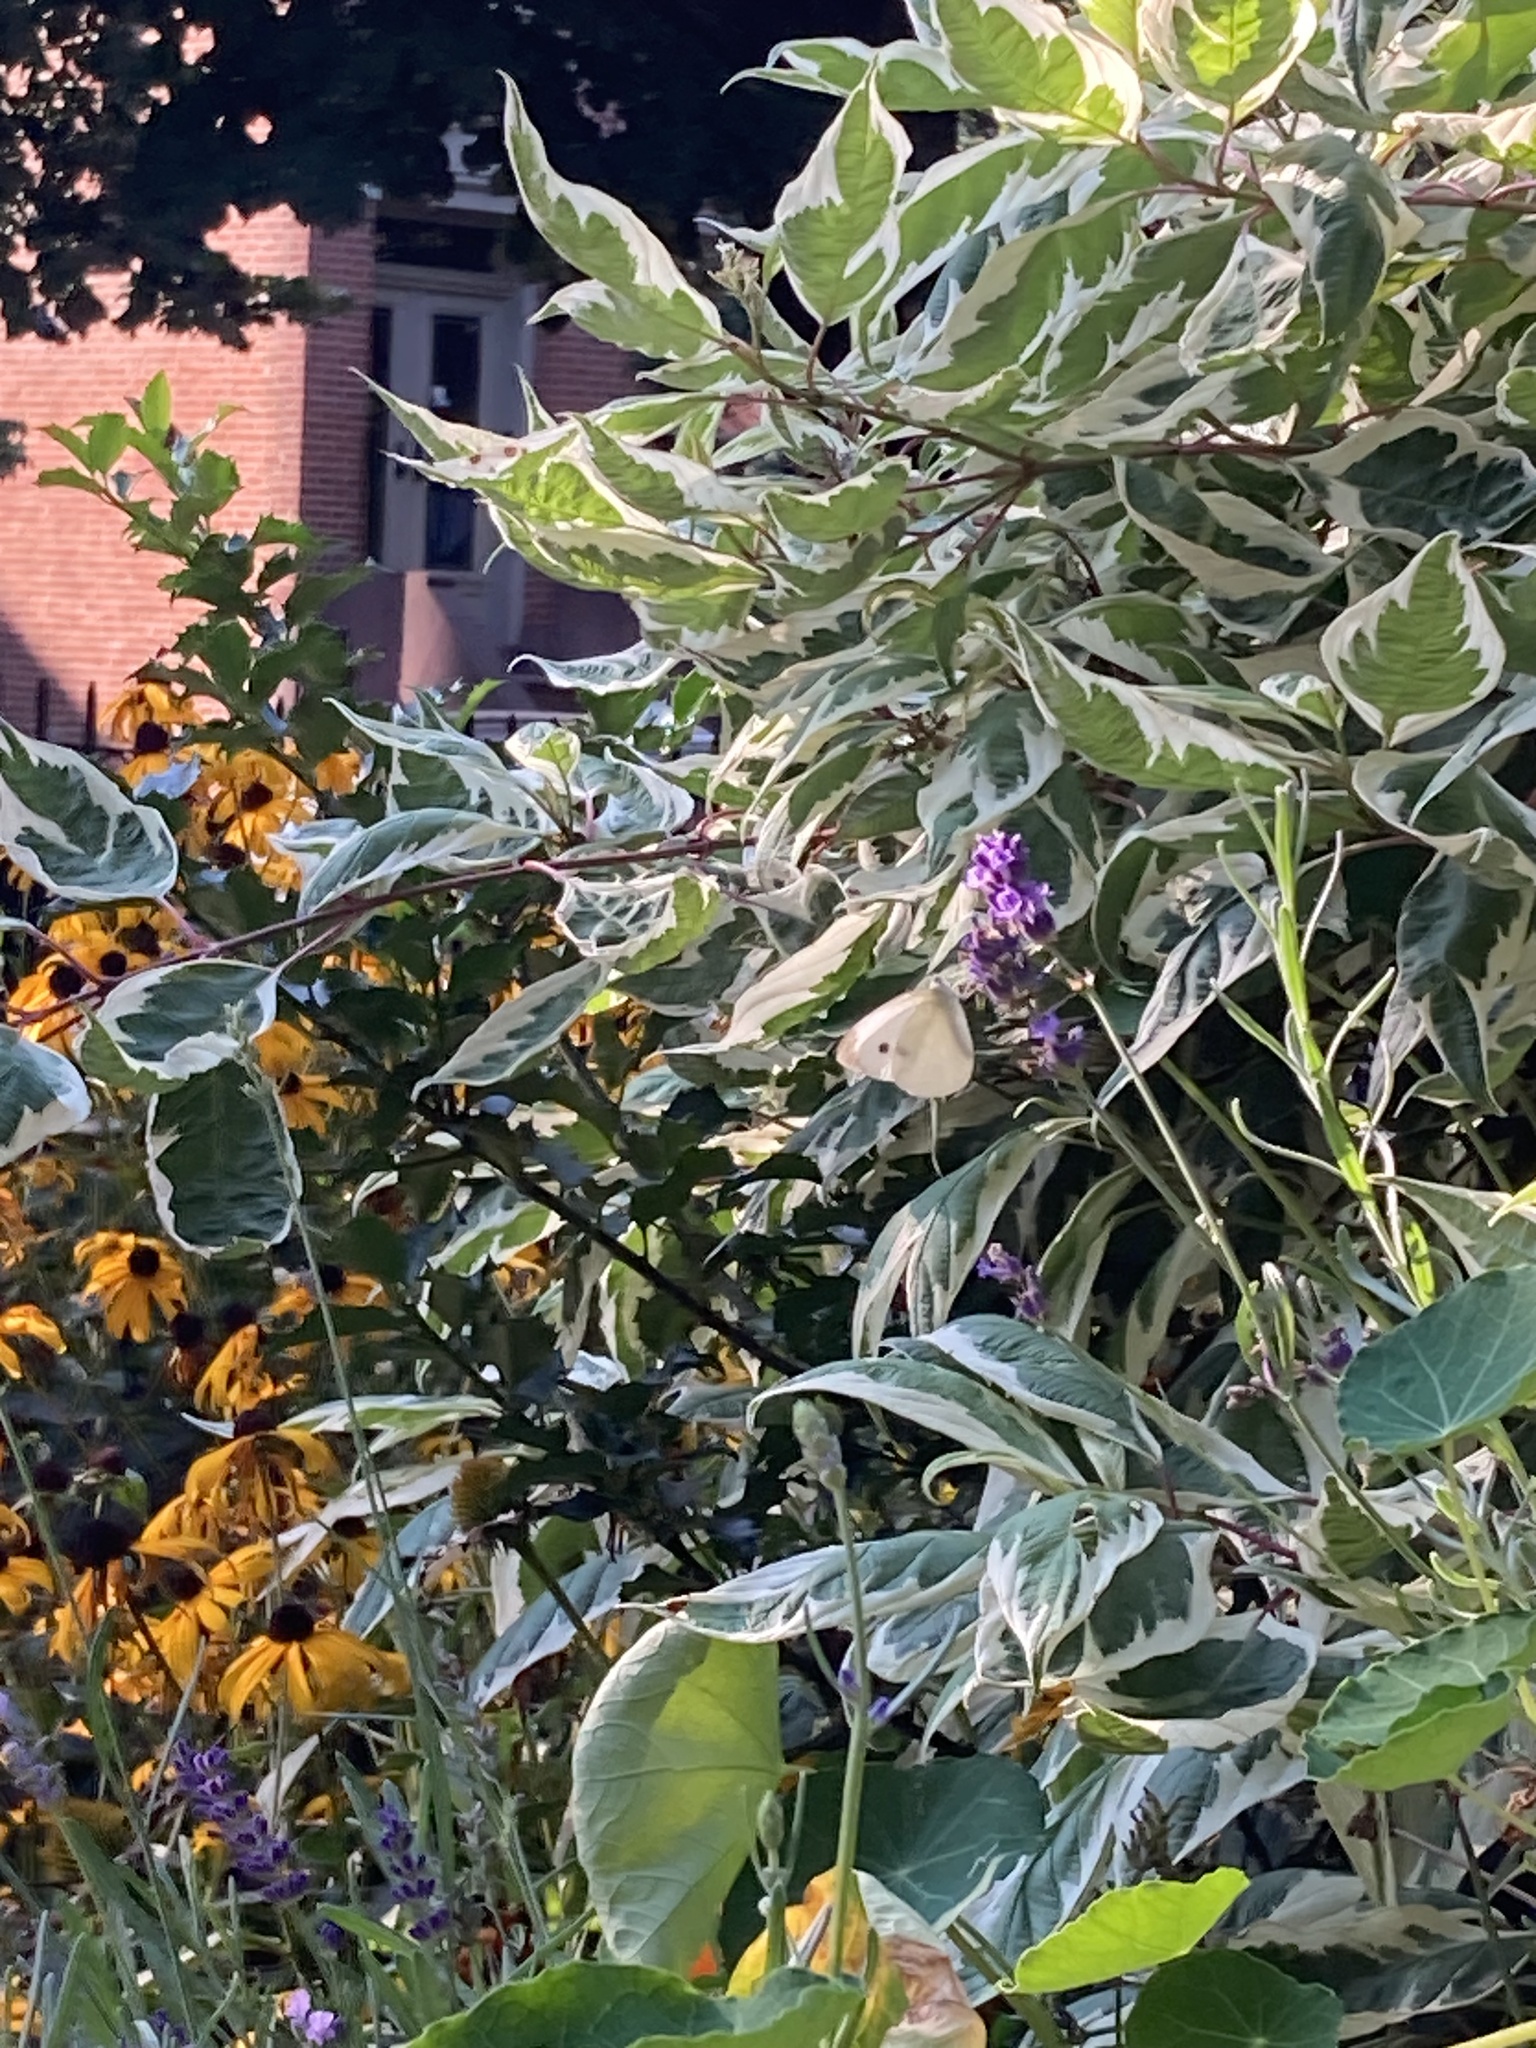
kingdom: Animalia
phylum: Arthropoda
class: Insecta
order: Lepidoptera
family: Pieridae
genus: Pieris
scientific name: Pieris rapae
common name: Small white
